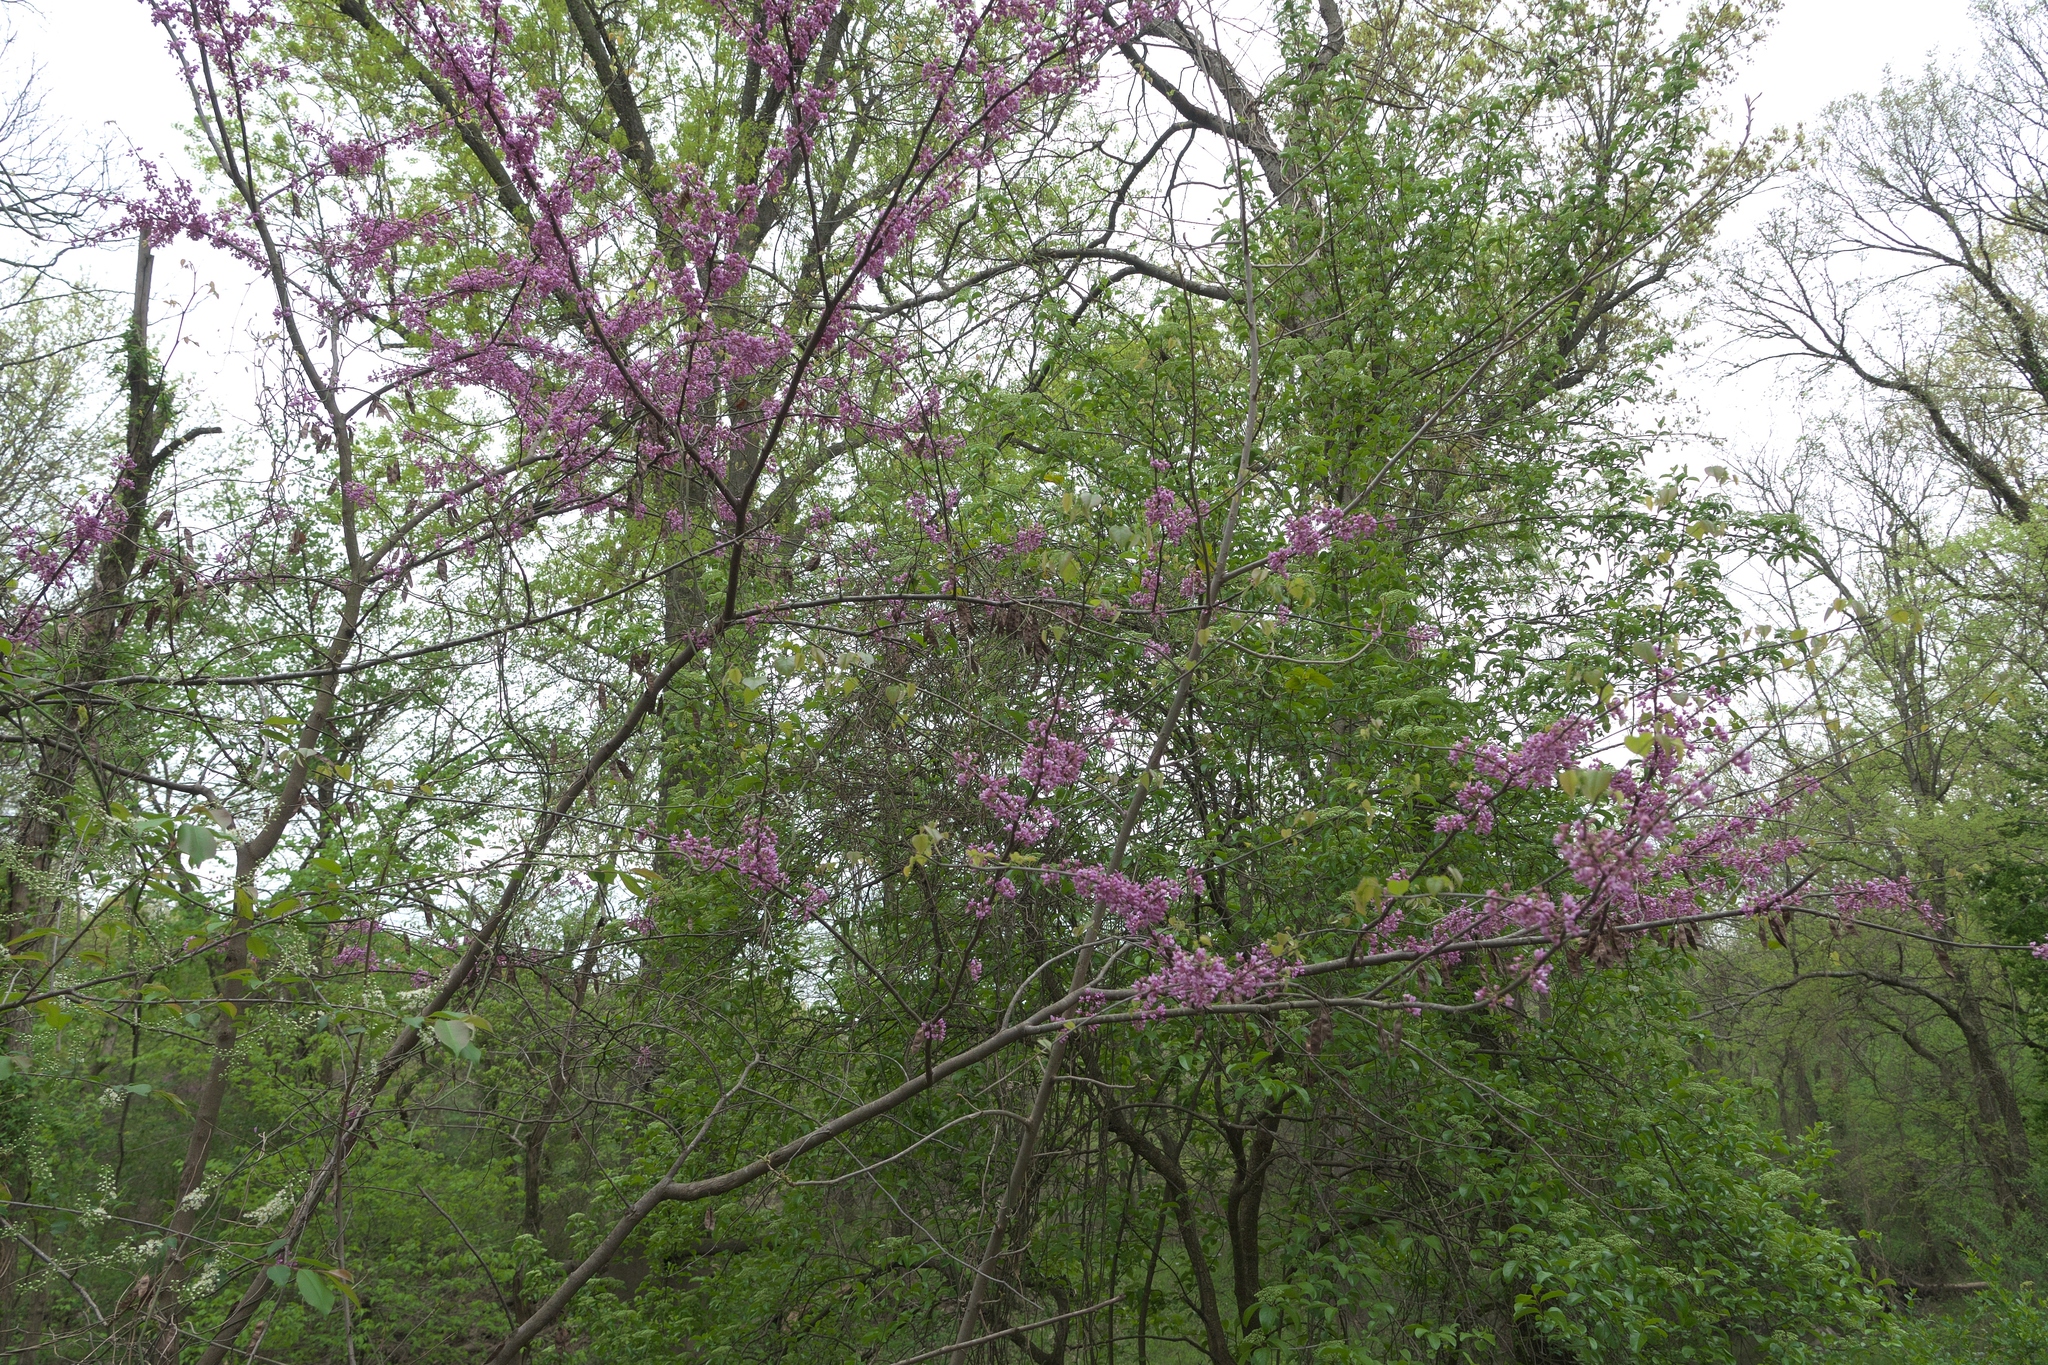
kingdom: Plantae
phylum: Tracheophyta
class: Magnoliopsida
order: Fabales
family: Fabaceae
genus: Cercis
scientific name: Cercis canadensis
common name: Eastern redbud
